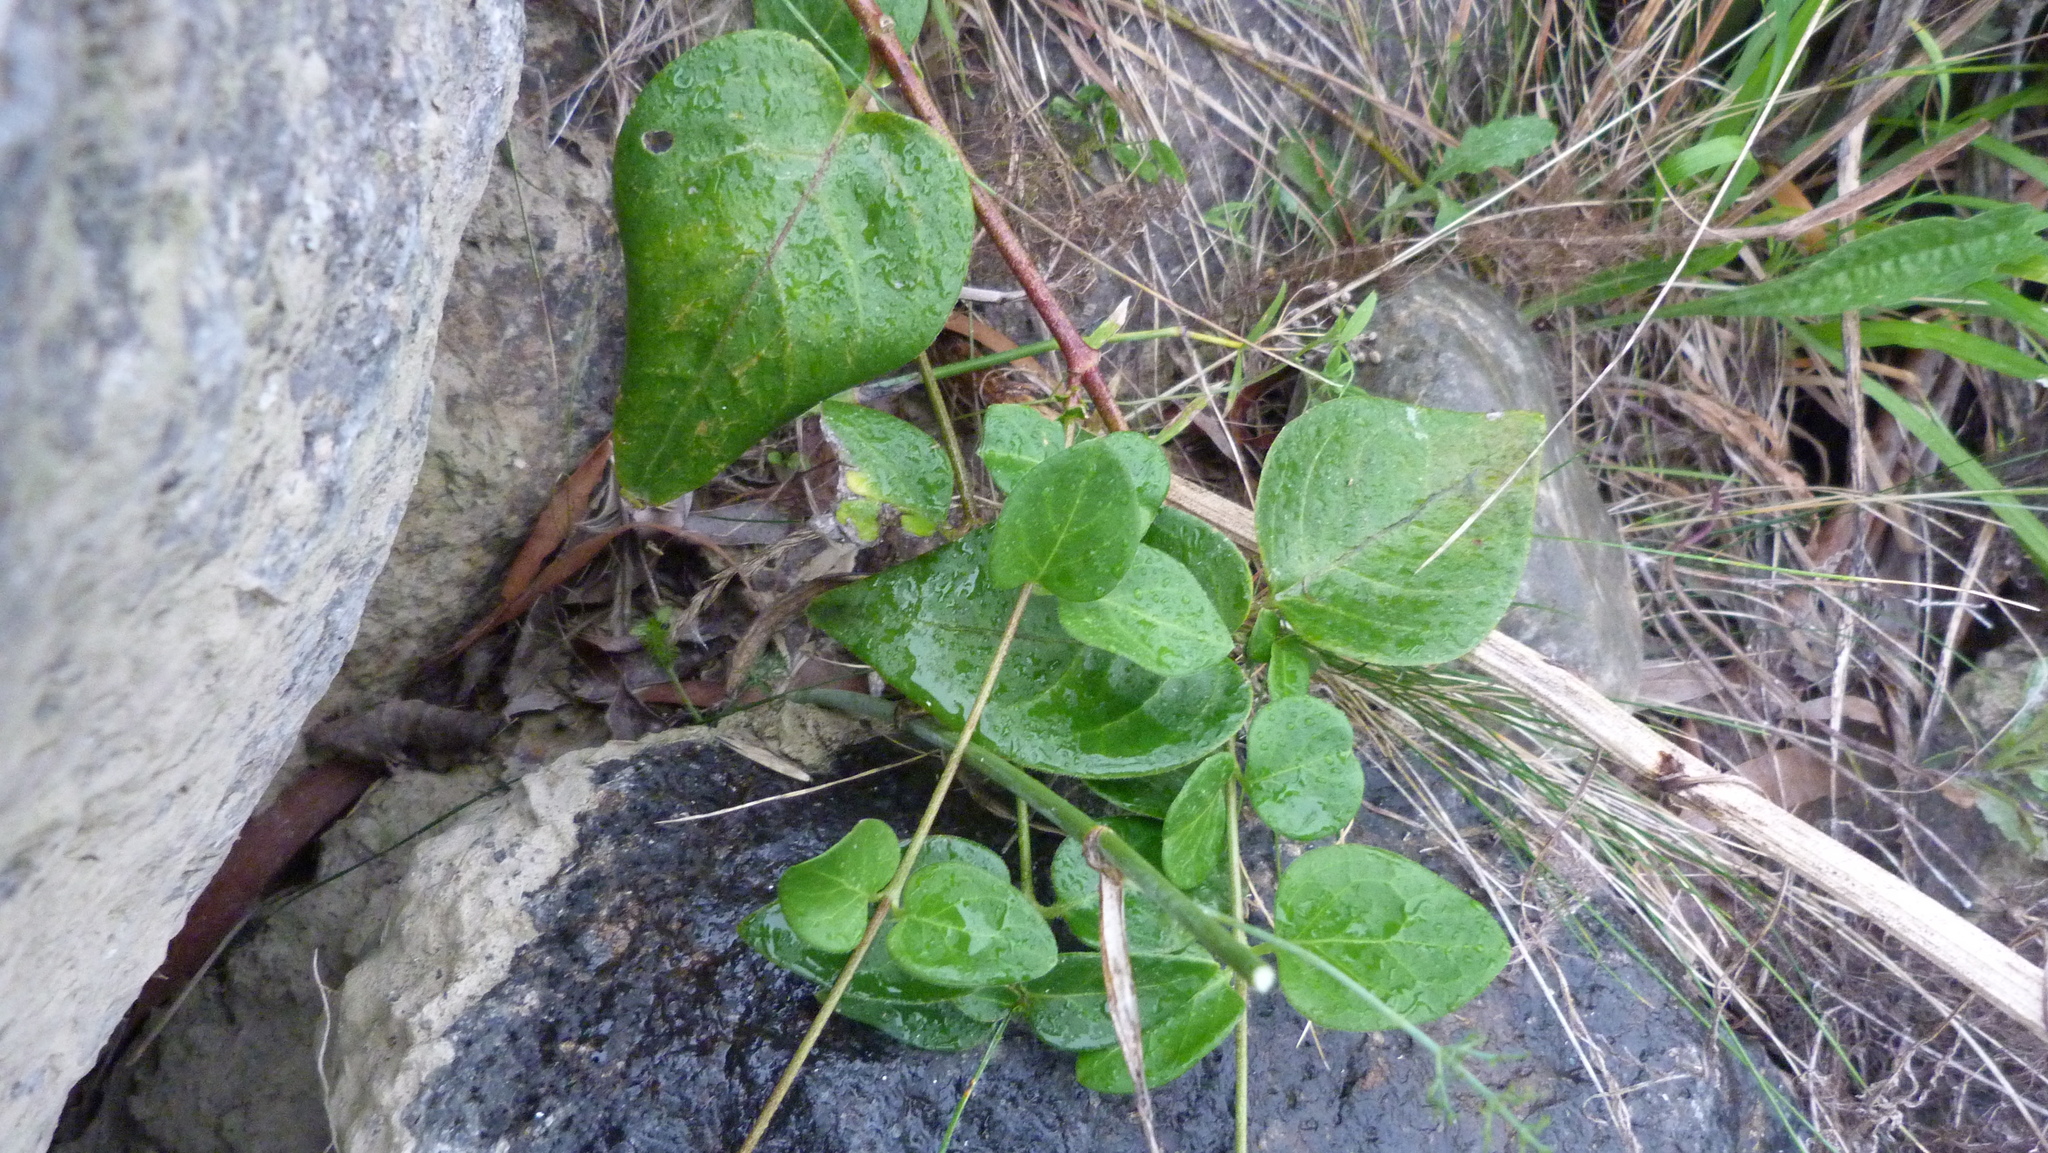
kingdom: Plantae
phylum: Tracheophyta
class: Magnoliopsida
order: Gentianales
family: Apocynaceae
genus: Vinca
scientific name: Vinca major
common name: Greater periwinkle
